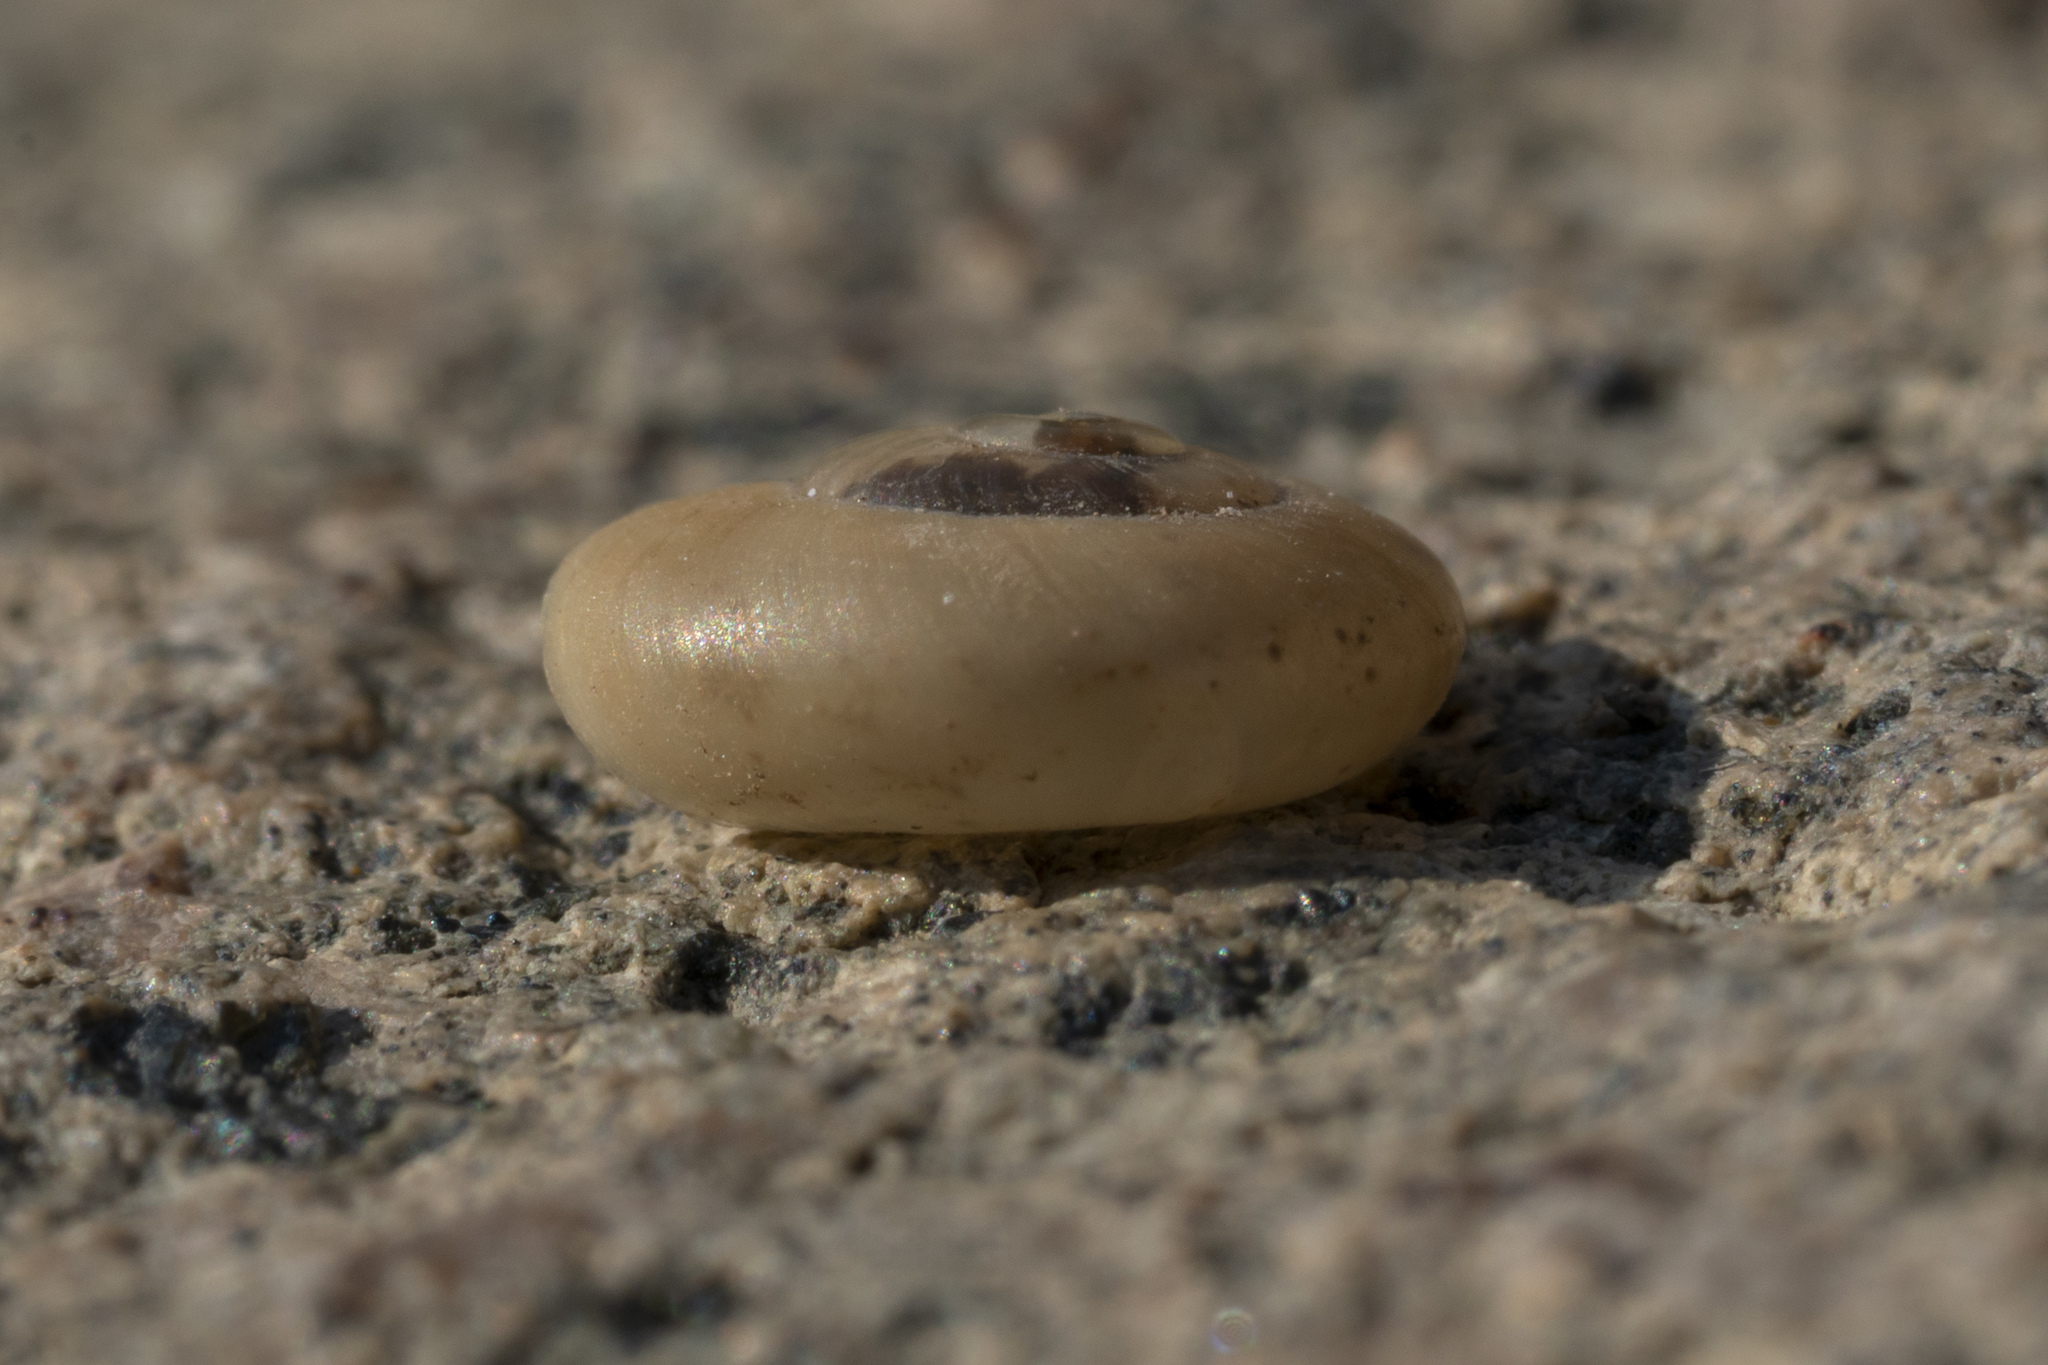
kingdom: Animalia
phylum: Mollusca
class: Gastropoda
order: Stylommatophora
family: Oxychilidae
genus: Eopolita
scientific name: Eopolita protensa
